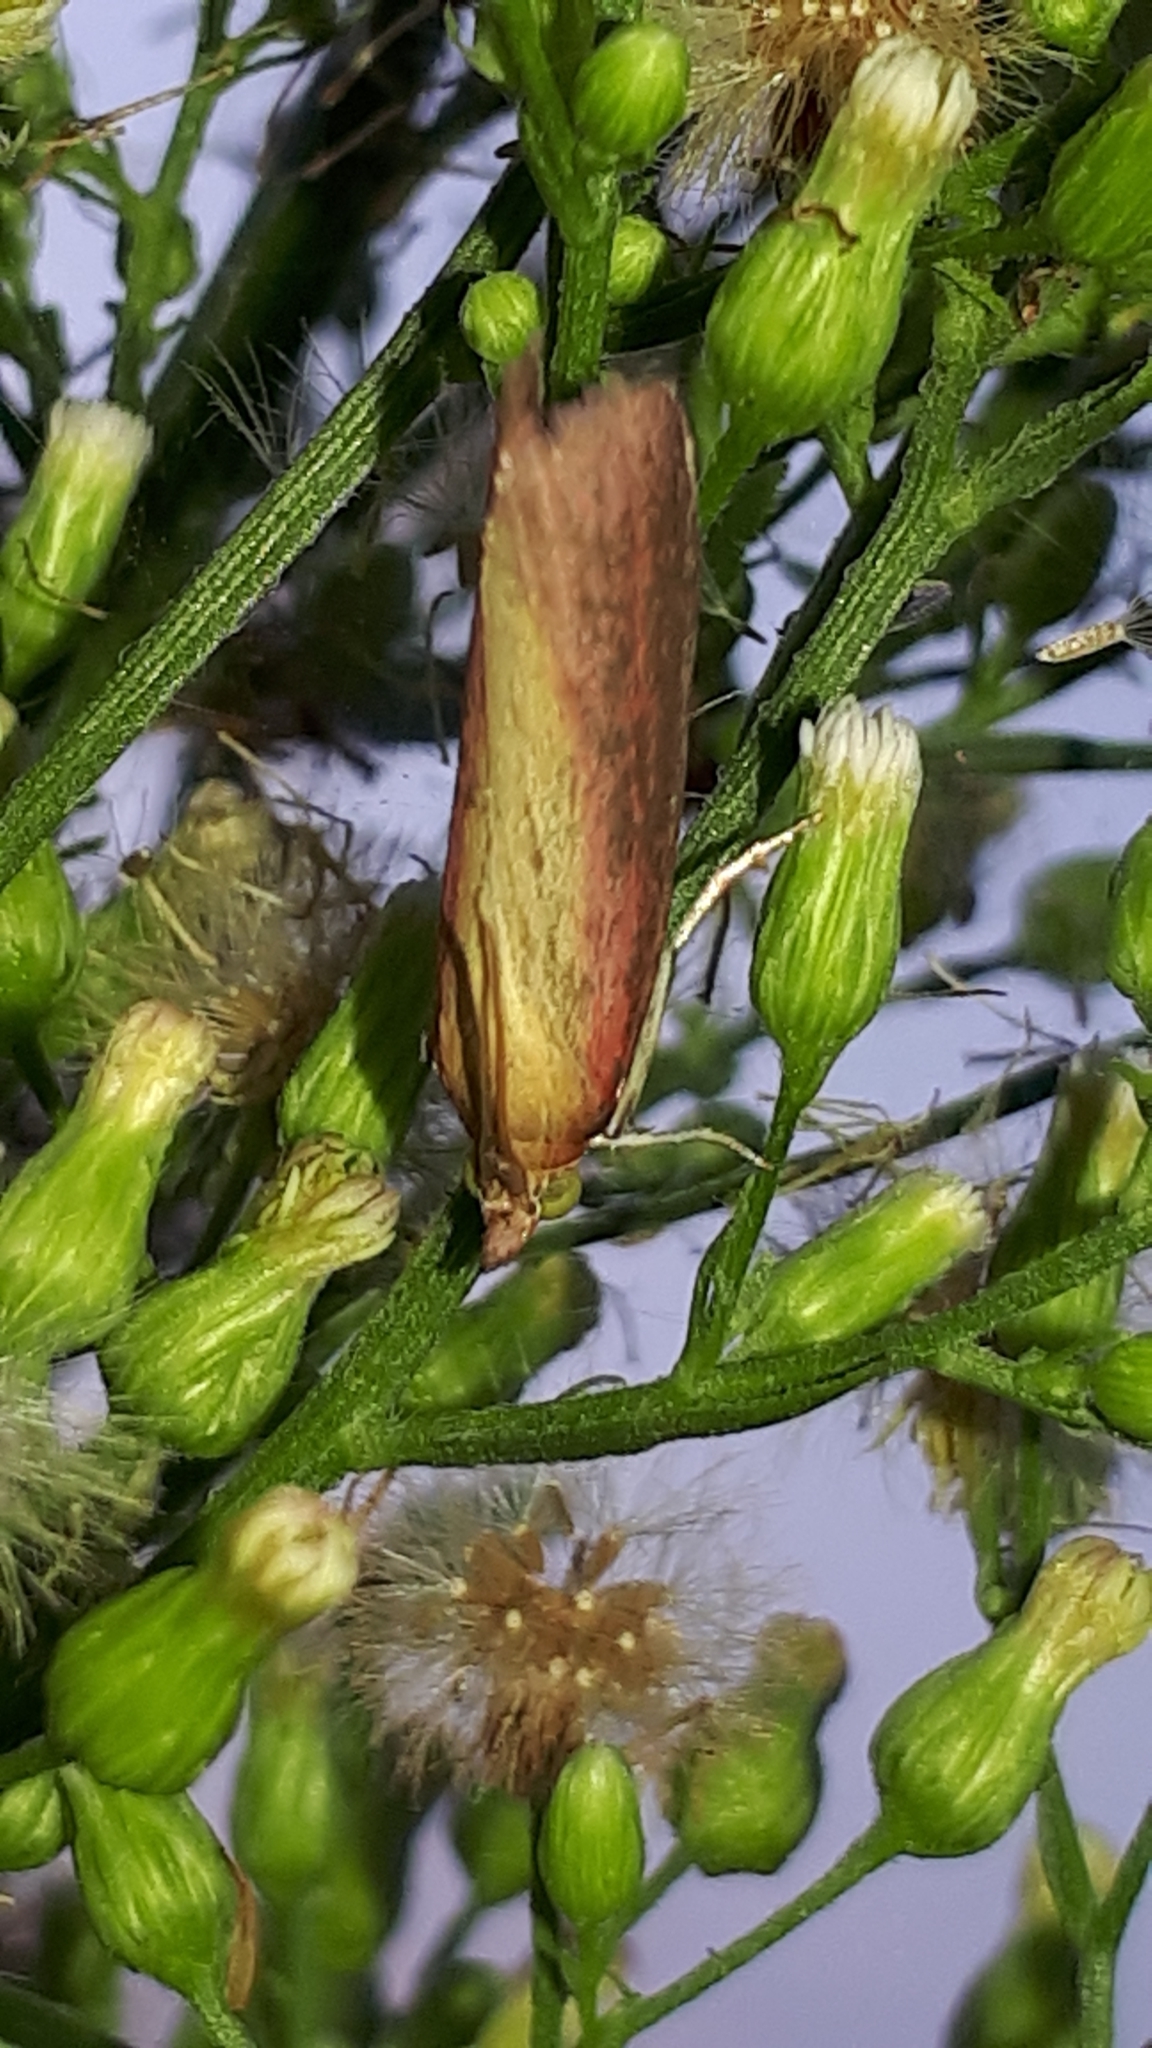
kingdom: Animalia
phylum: Arthropoda
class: Insecta
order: Lepidoptera
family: Pyralidae
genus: Oncocera
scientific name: Oncocera semirubella
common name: Rosy-striped knot-horn
